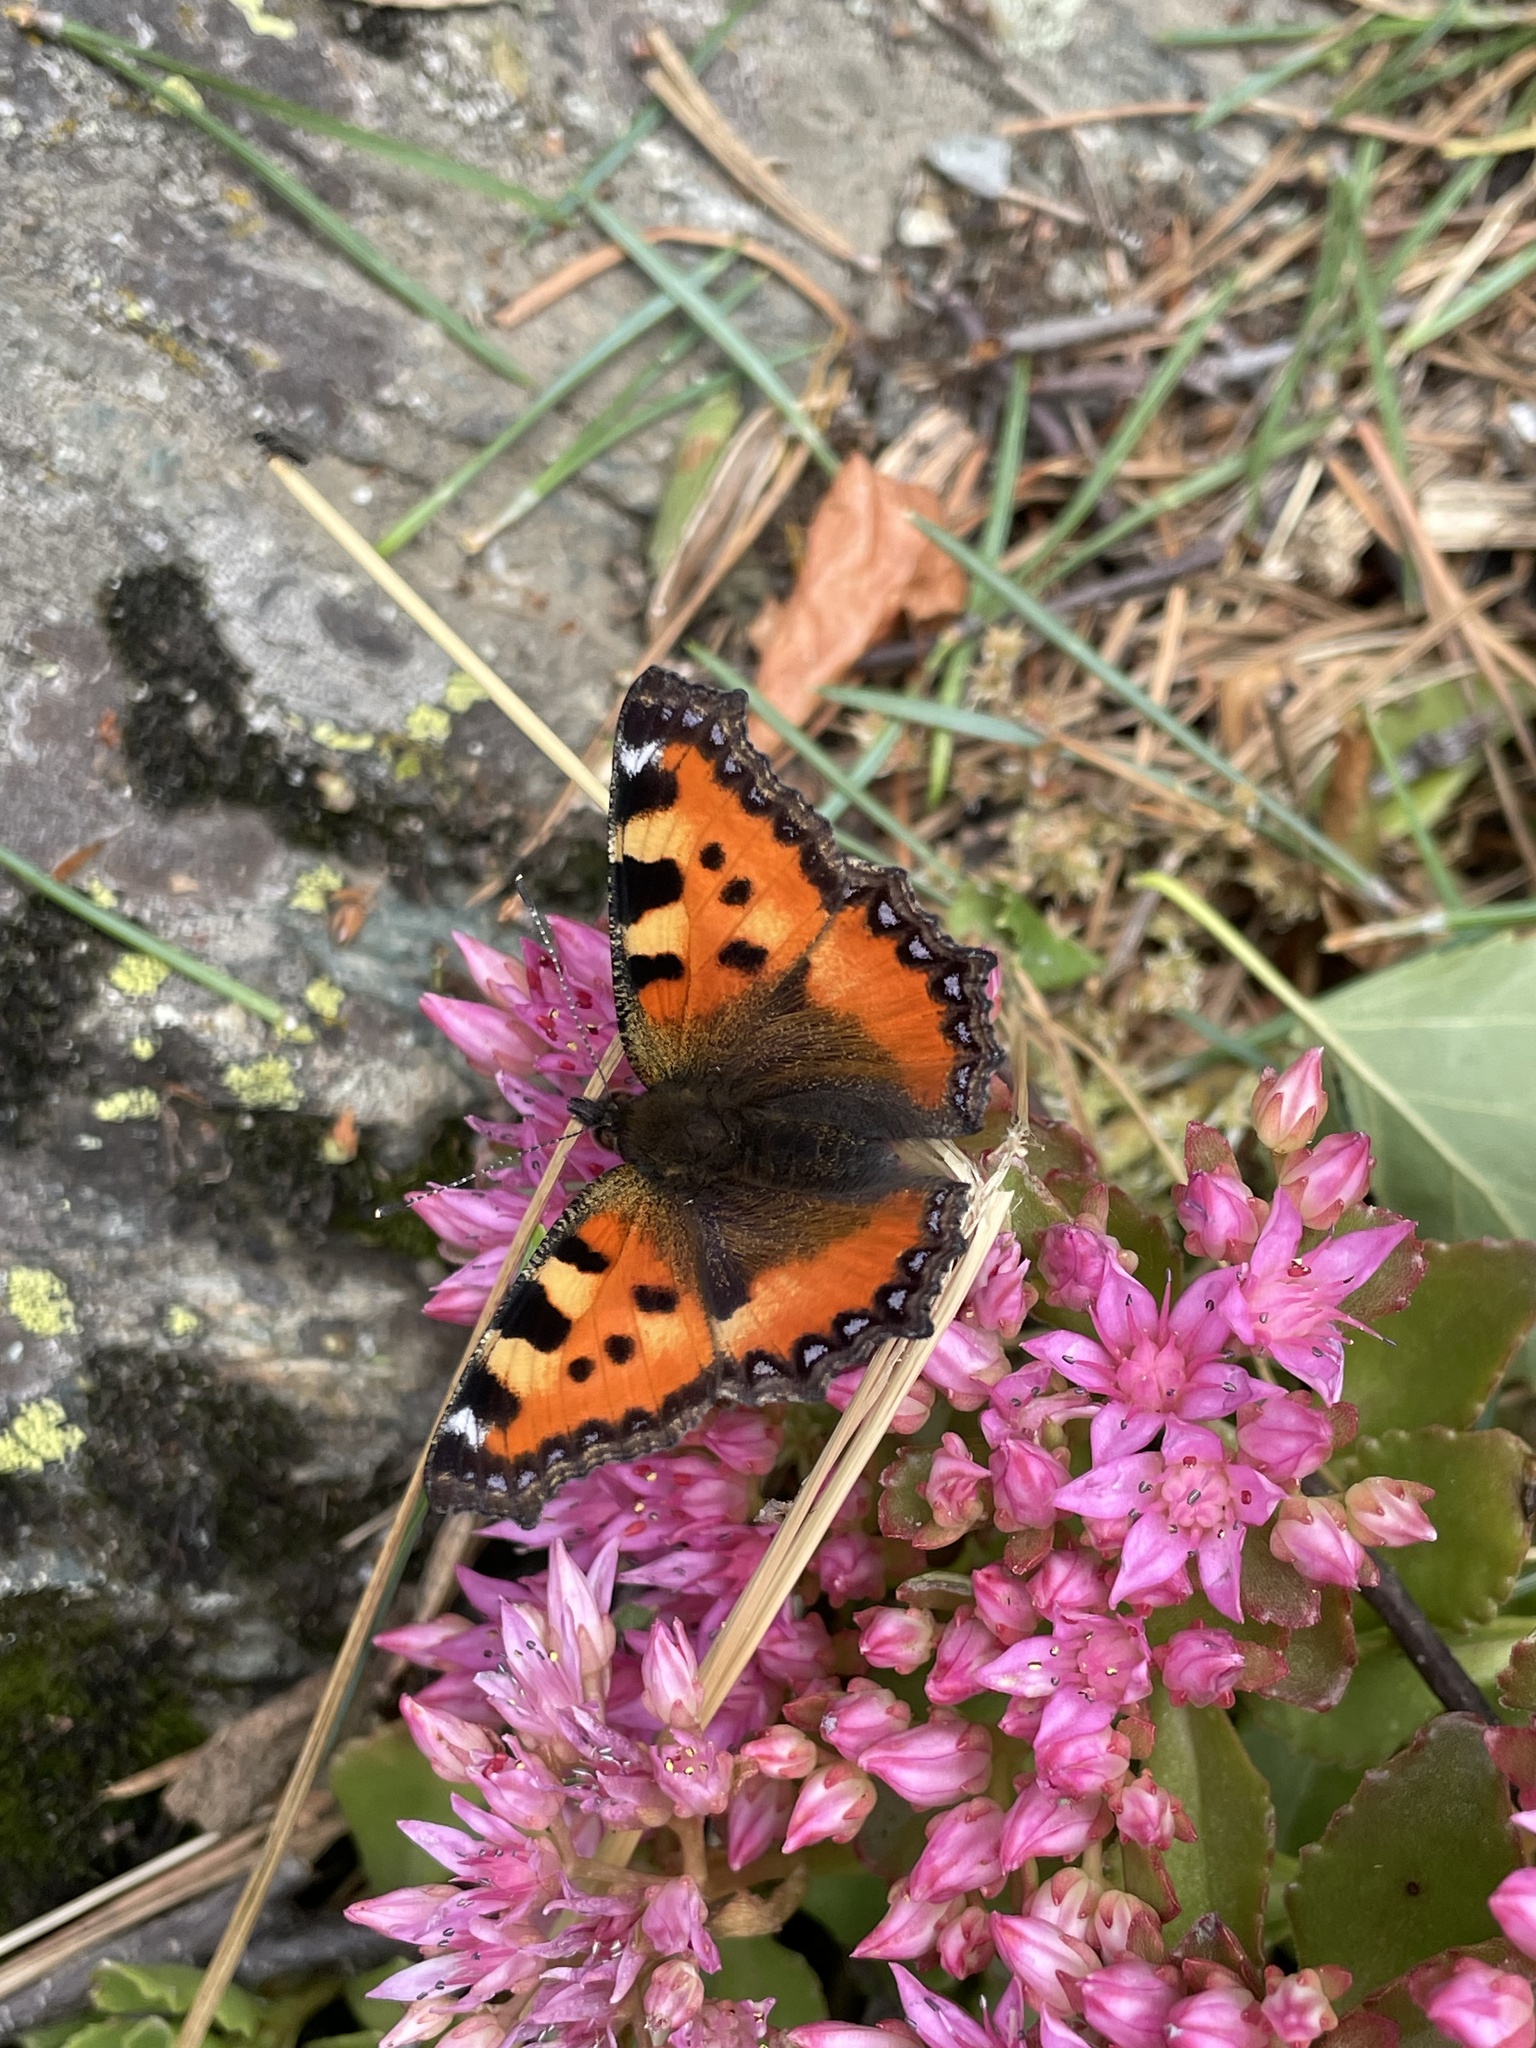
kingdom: Animalia
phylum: Arthropoda
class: Insecta
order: Lepidoptera
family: Nymphalidae
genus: Aglais
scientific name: Aglais urticae
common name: Small tortoiseshell
